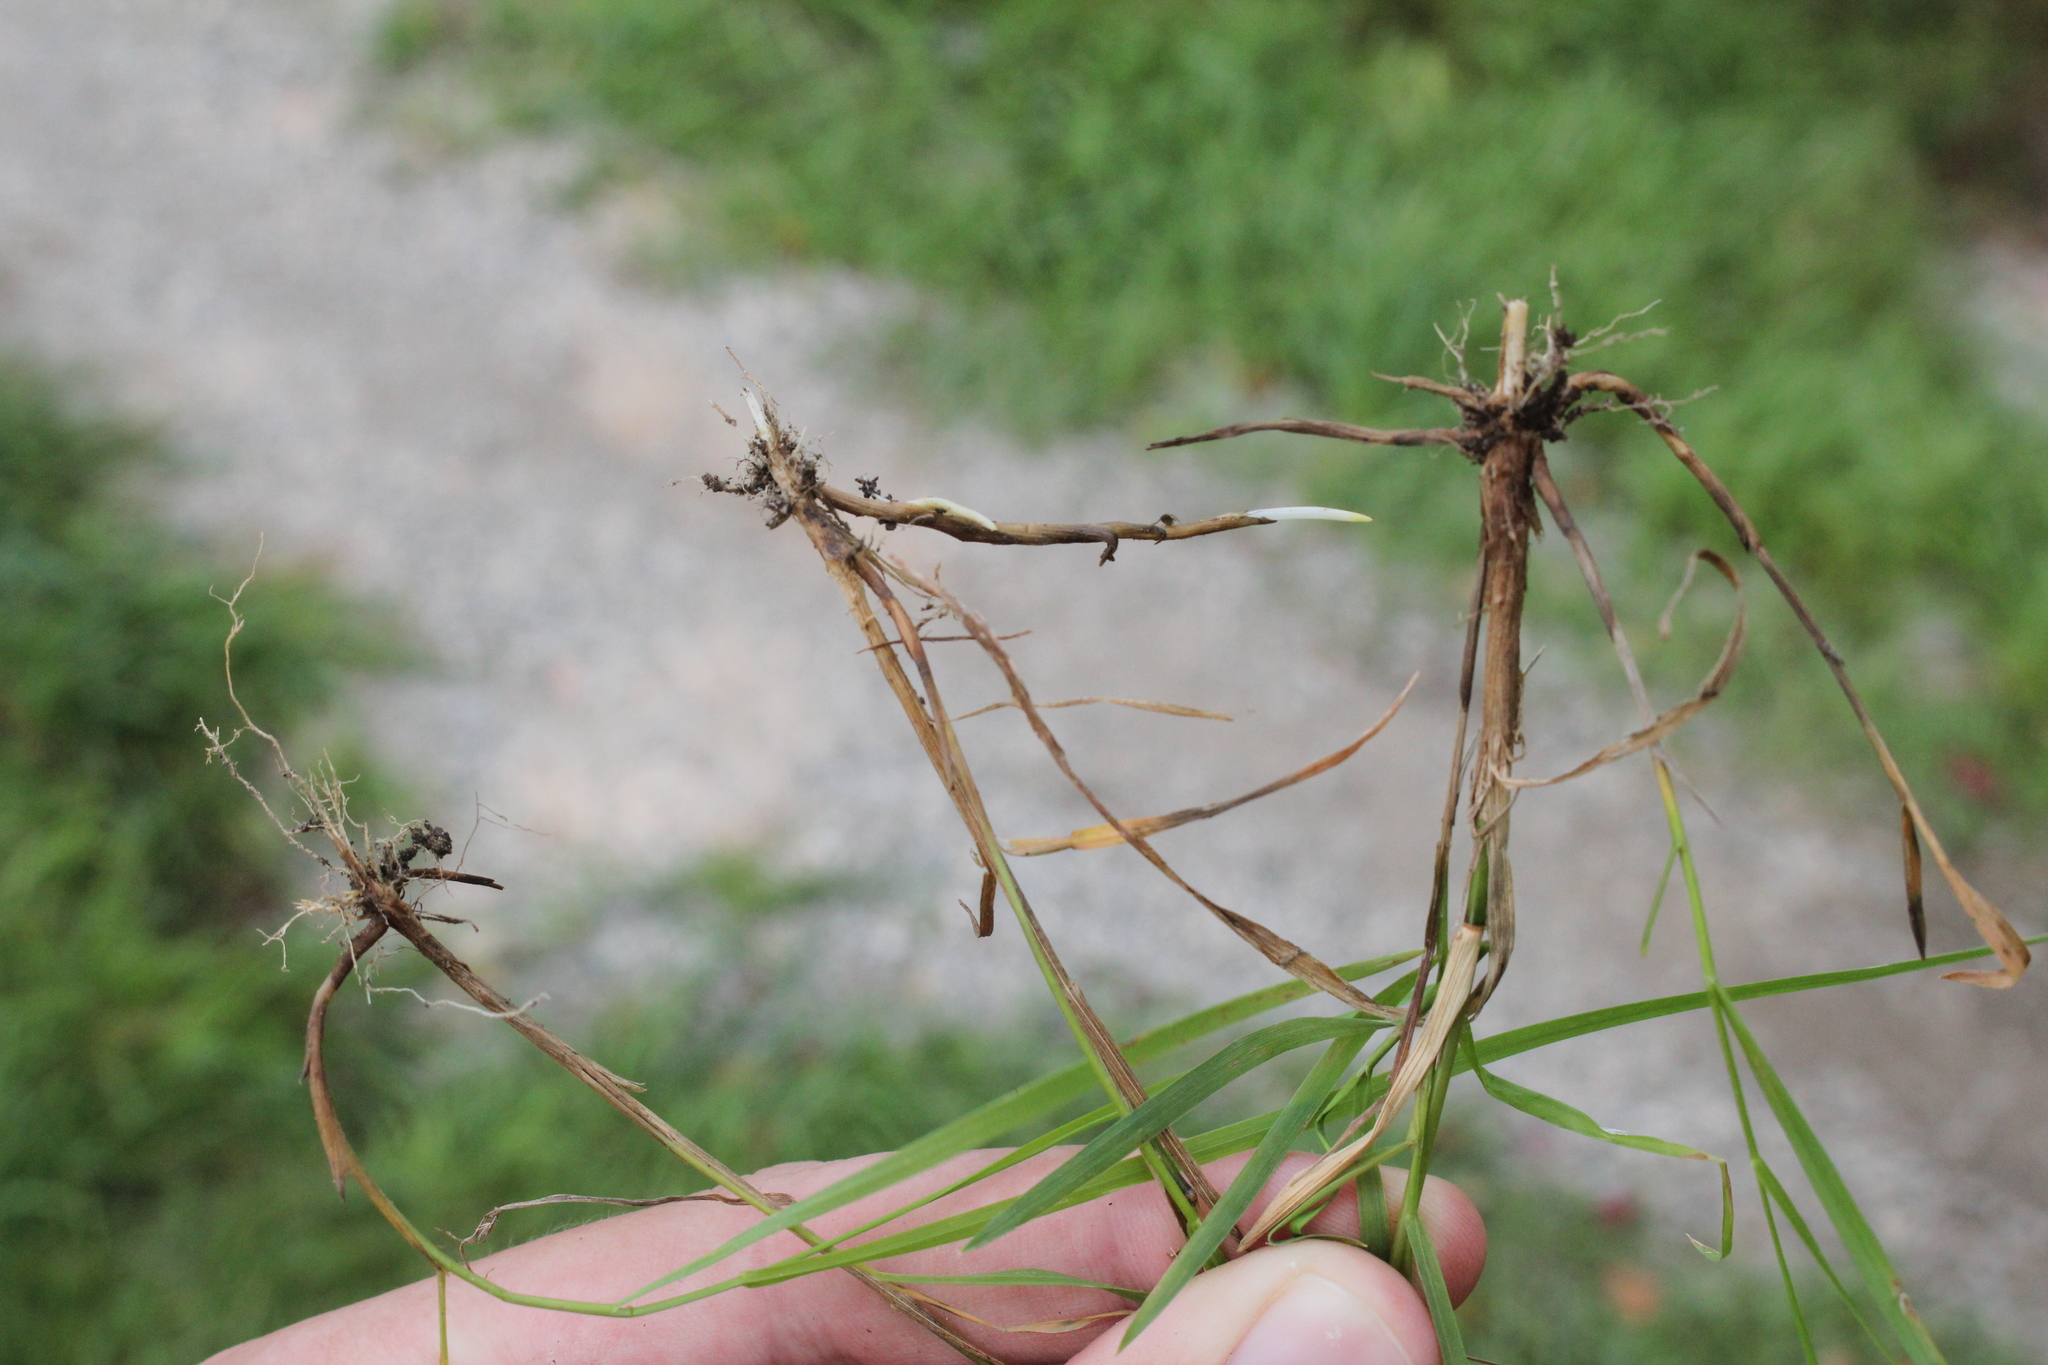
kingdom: Plantae
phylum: Tracheophyta
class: Liliopsida
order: Poales
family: Poaceae
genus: Agrostis
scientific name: Agrostis gigantea
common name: Black bent
